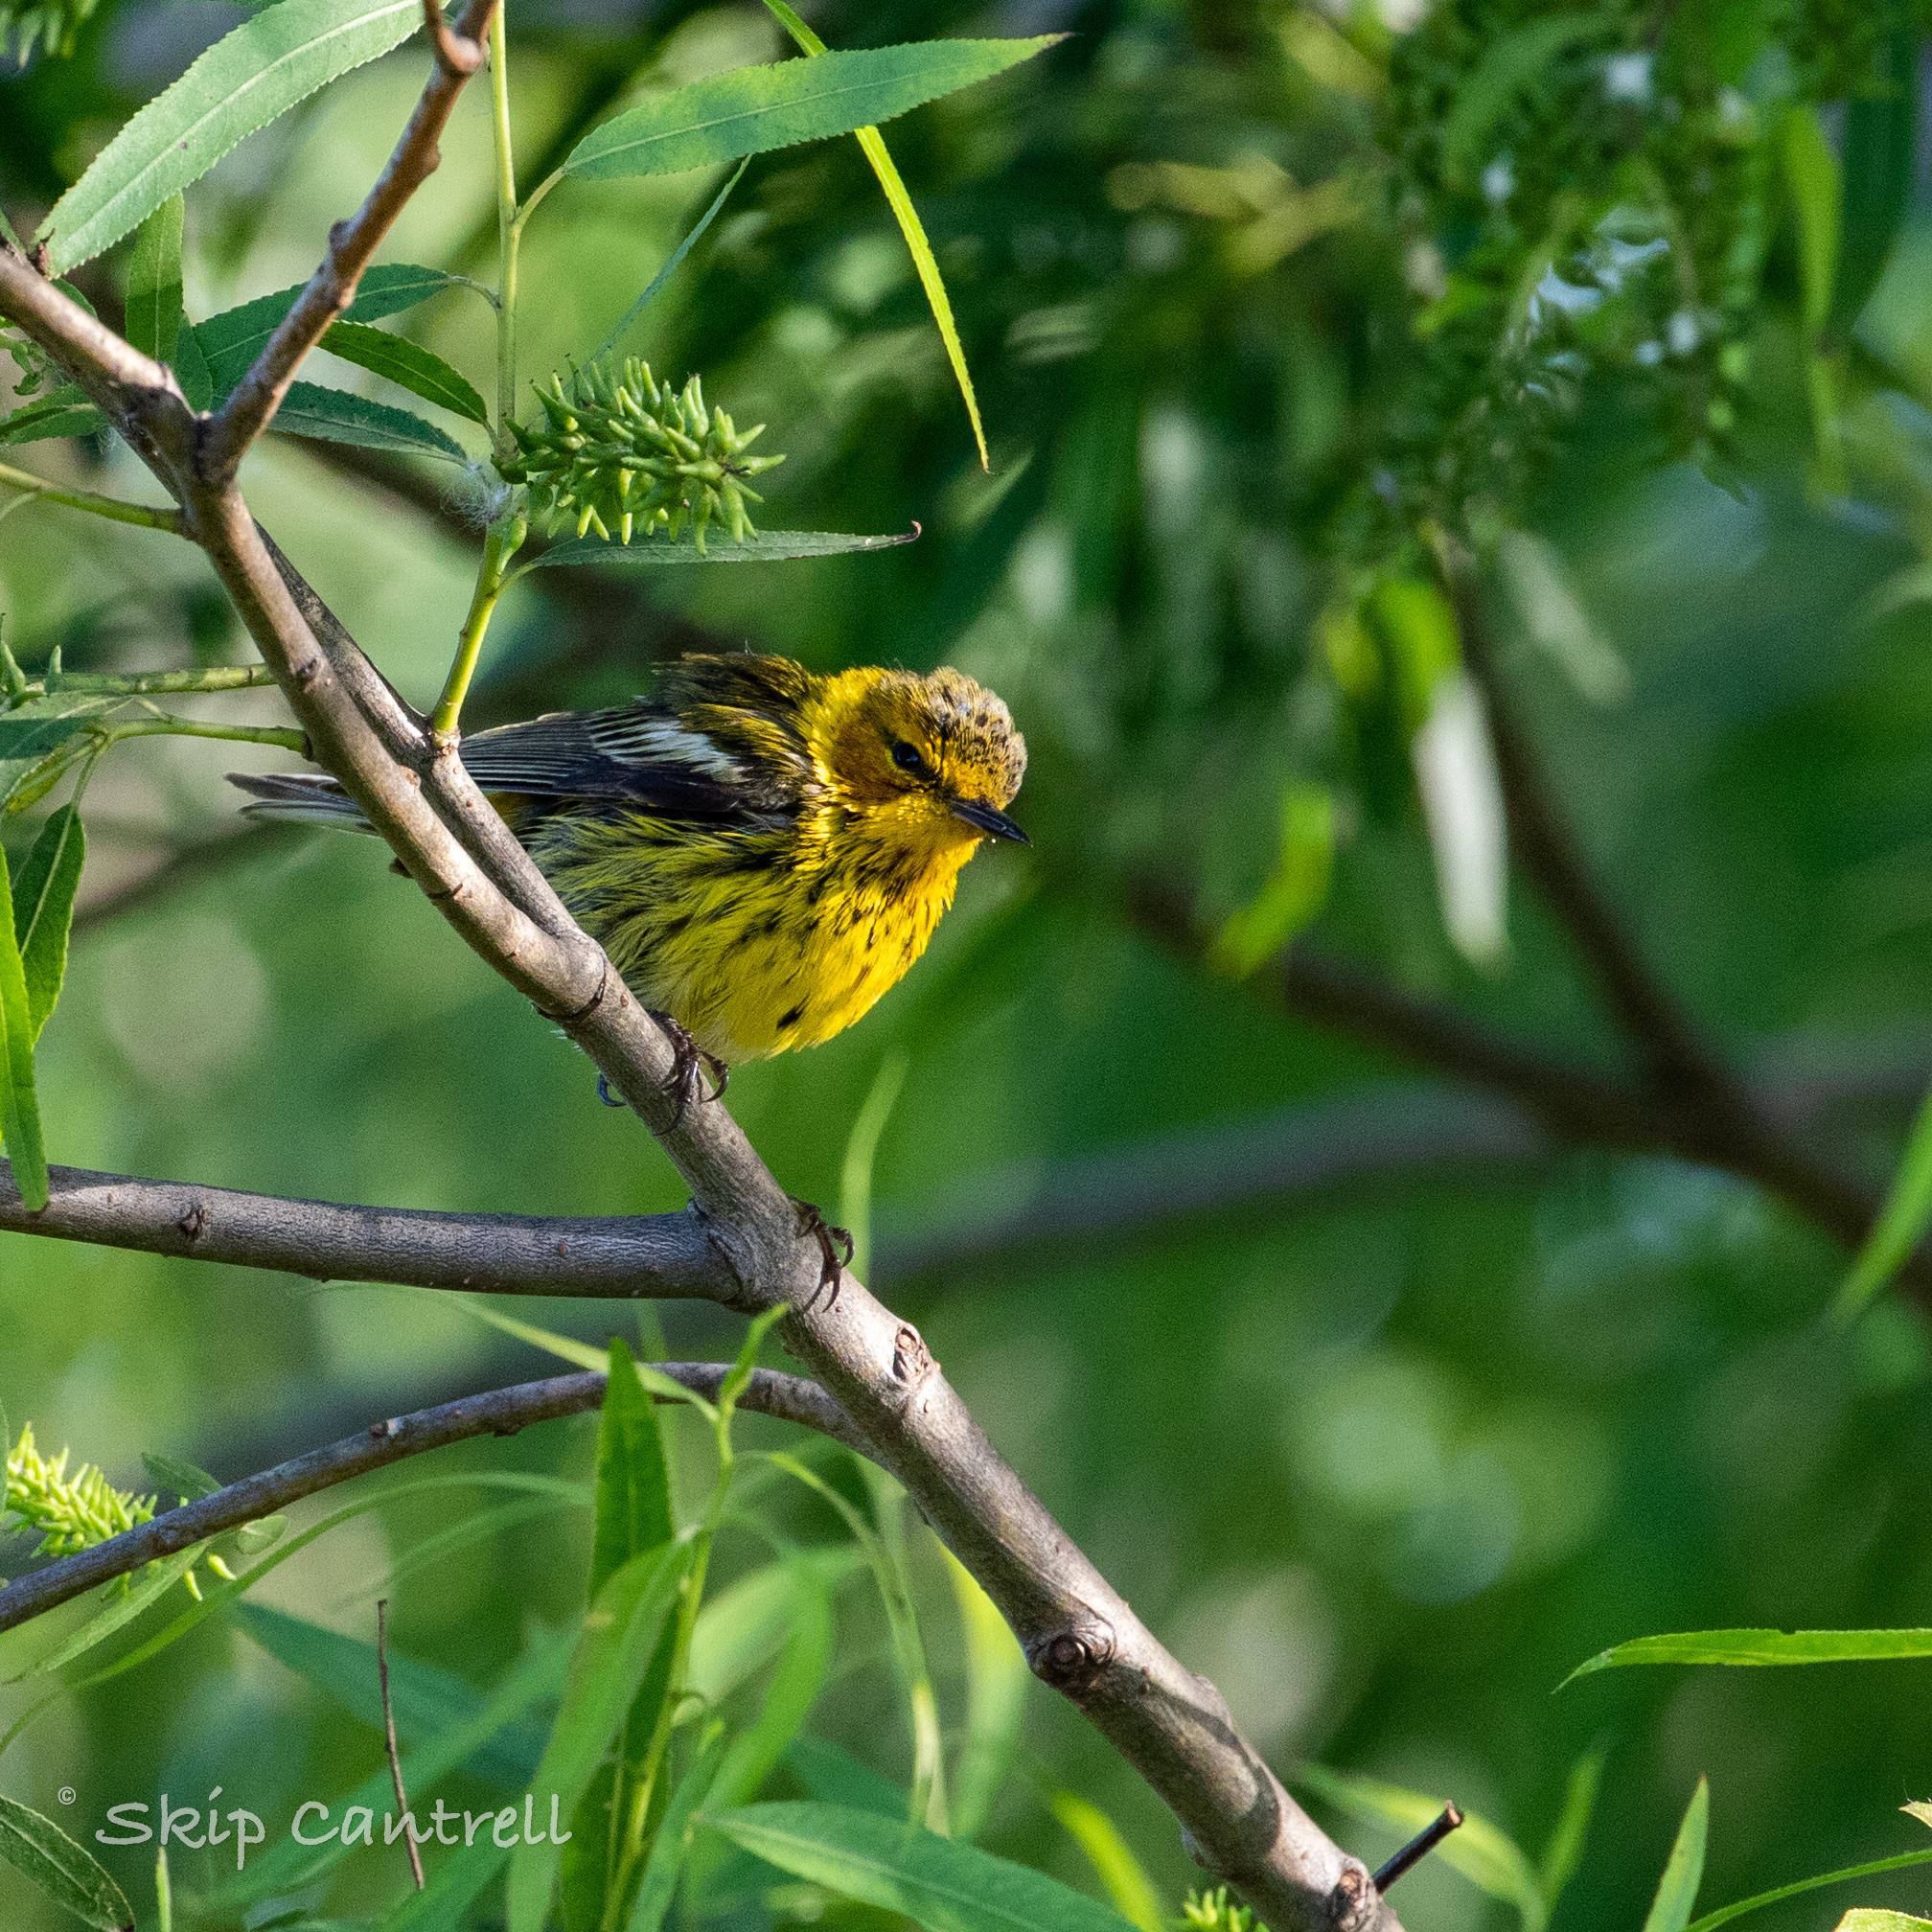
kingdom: Animalia
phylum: Chordata
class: Aves
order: Passeriformes
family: Parulidae
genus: Setophaga
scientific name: Setophaga tigrina
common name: Cape may warbler
